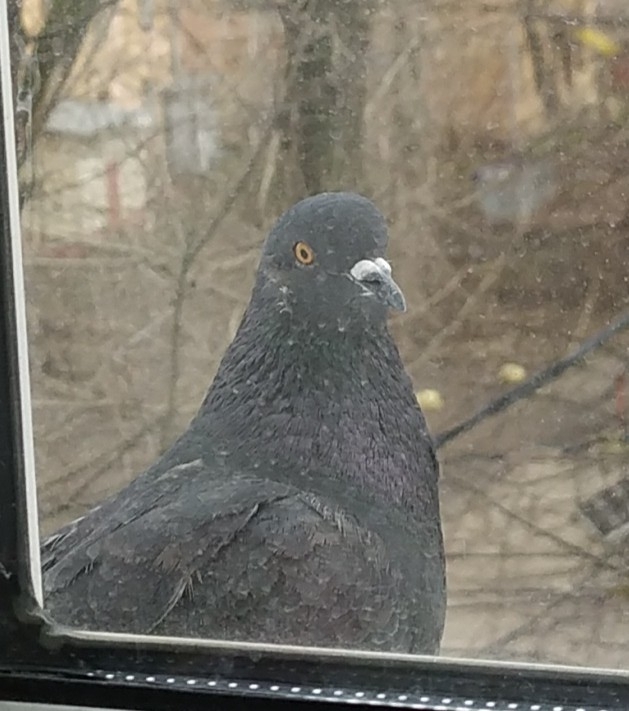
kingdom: Animalia
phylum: Chordata
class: Aves
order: Columbiformes
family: Columbidae
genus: Columba
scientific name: Columba livia
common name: Rock pigeon
